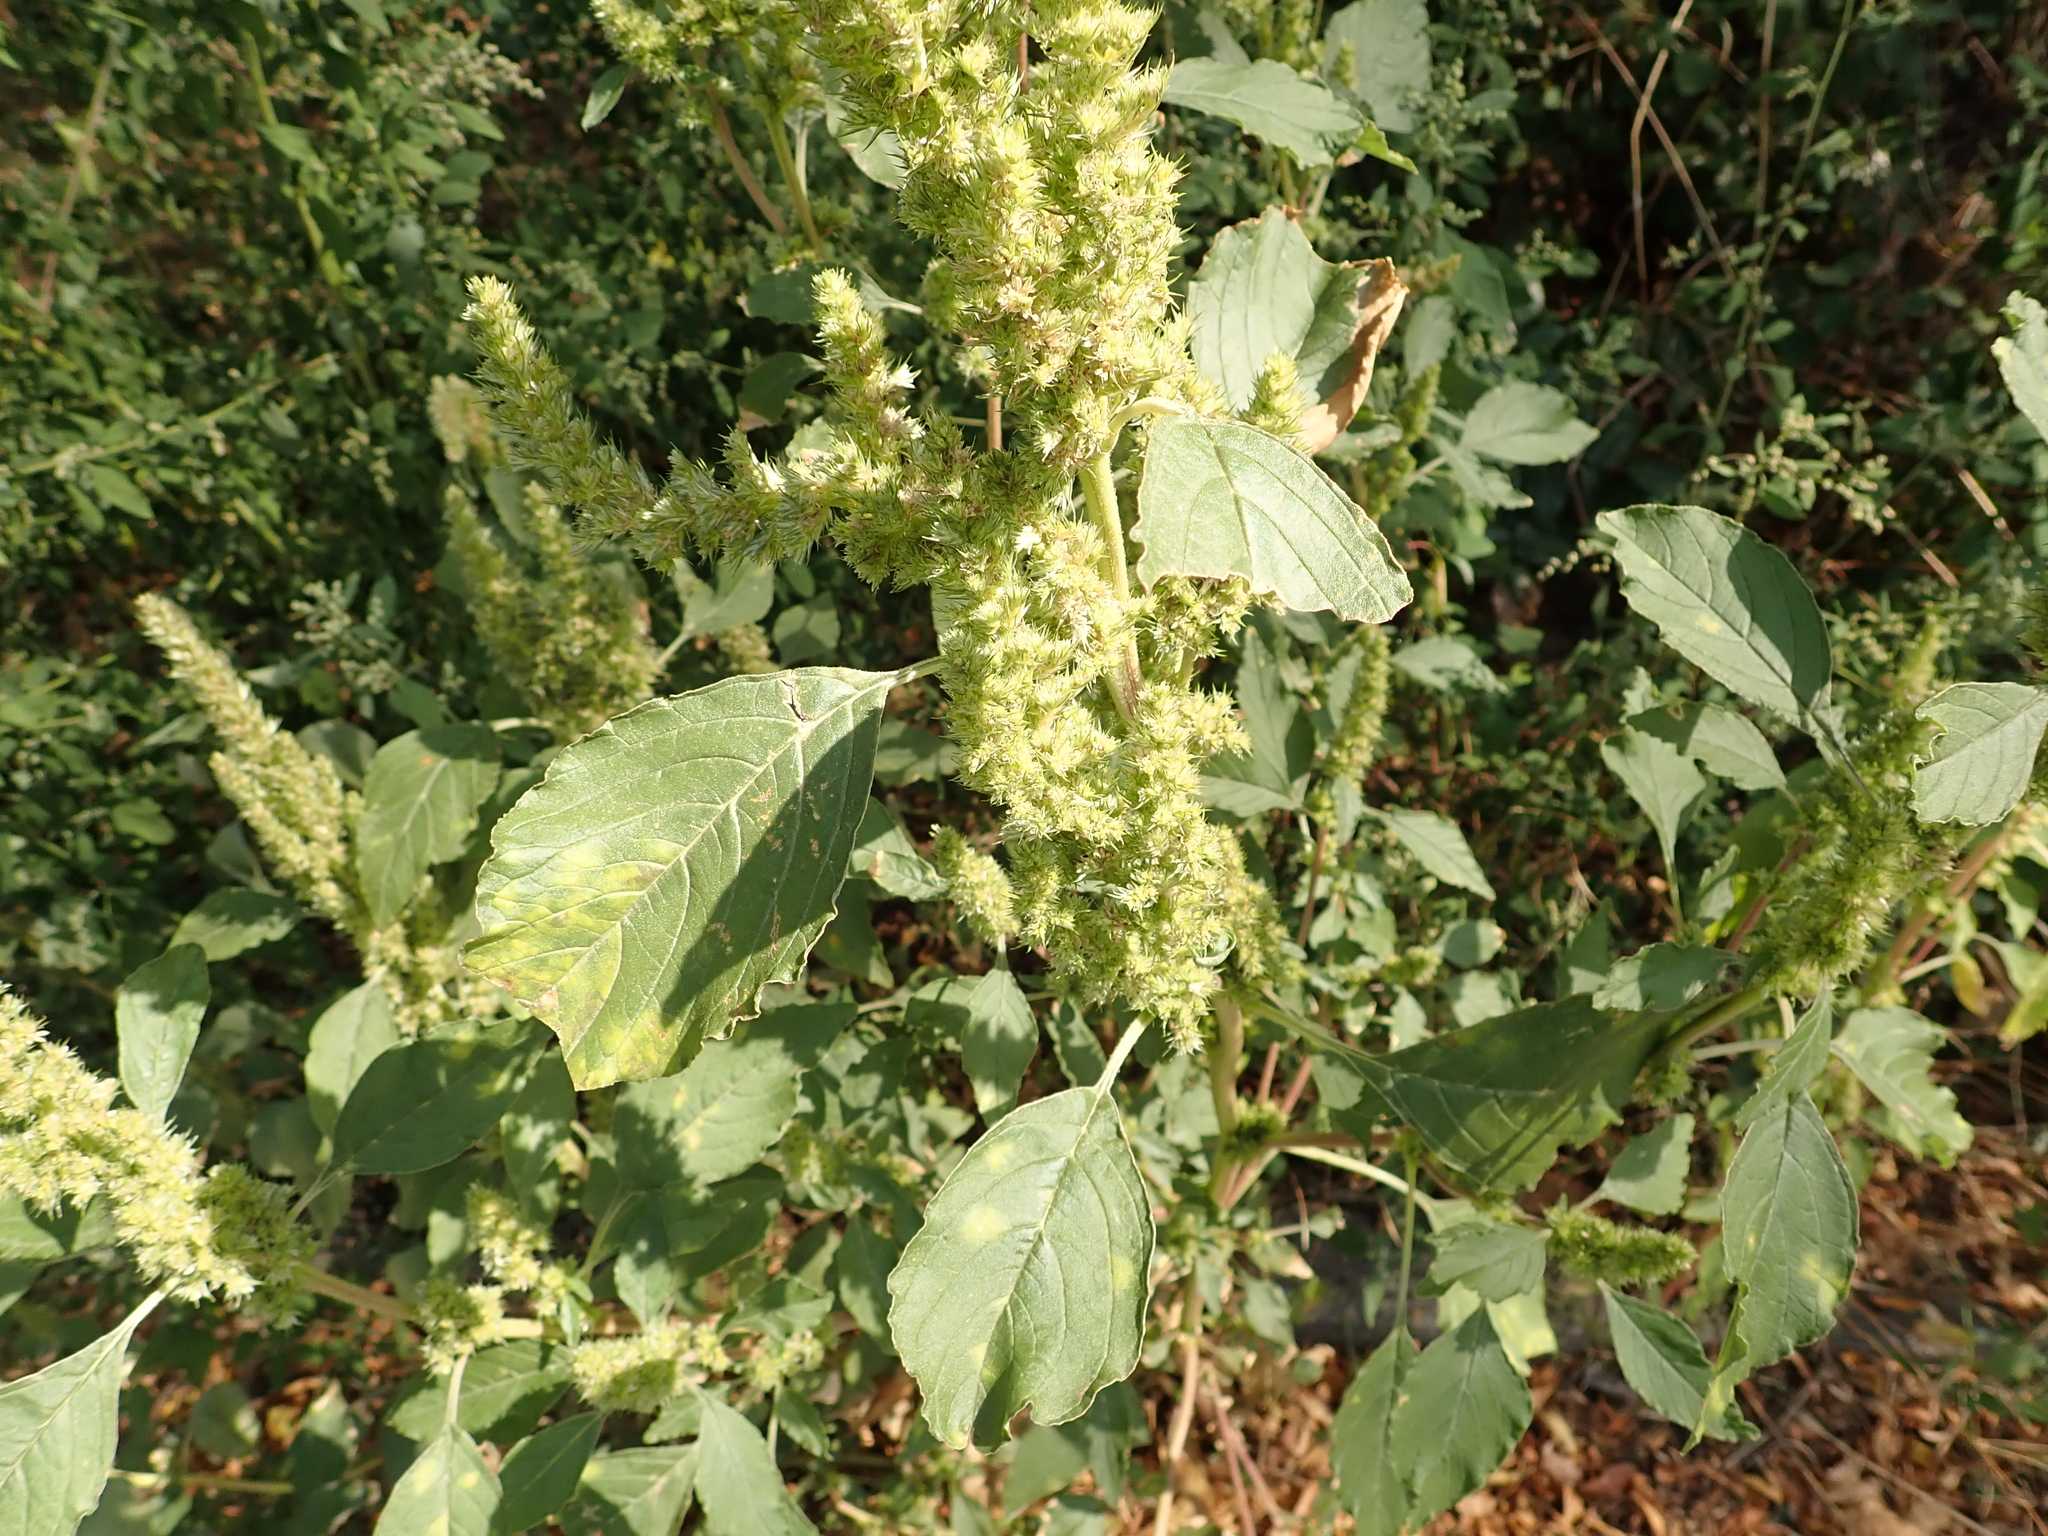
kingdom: Plantae
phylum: Tracheophyta
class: Magnoliopsida
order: Caryophyllales
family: Amaranthaceae
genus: Amaranthus
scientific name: Amaranthus retroflexus
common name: Redroot amaranth
